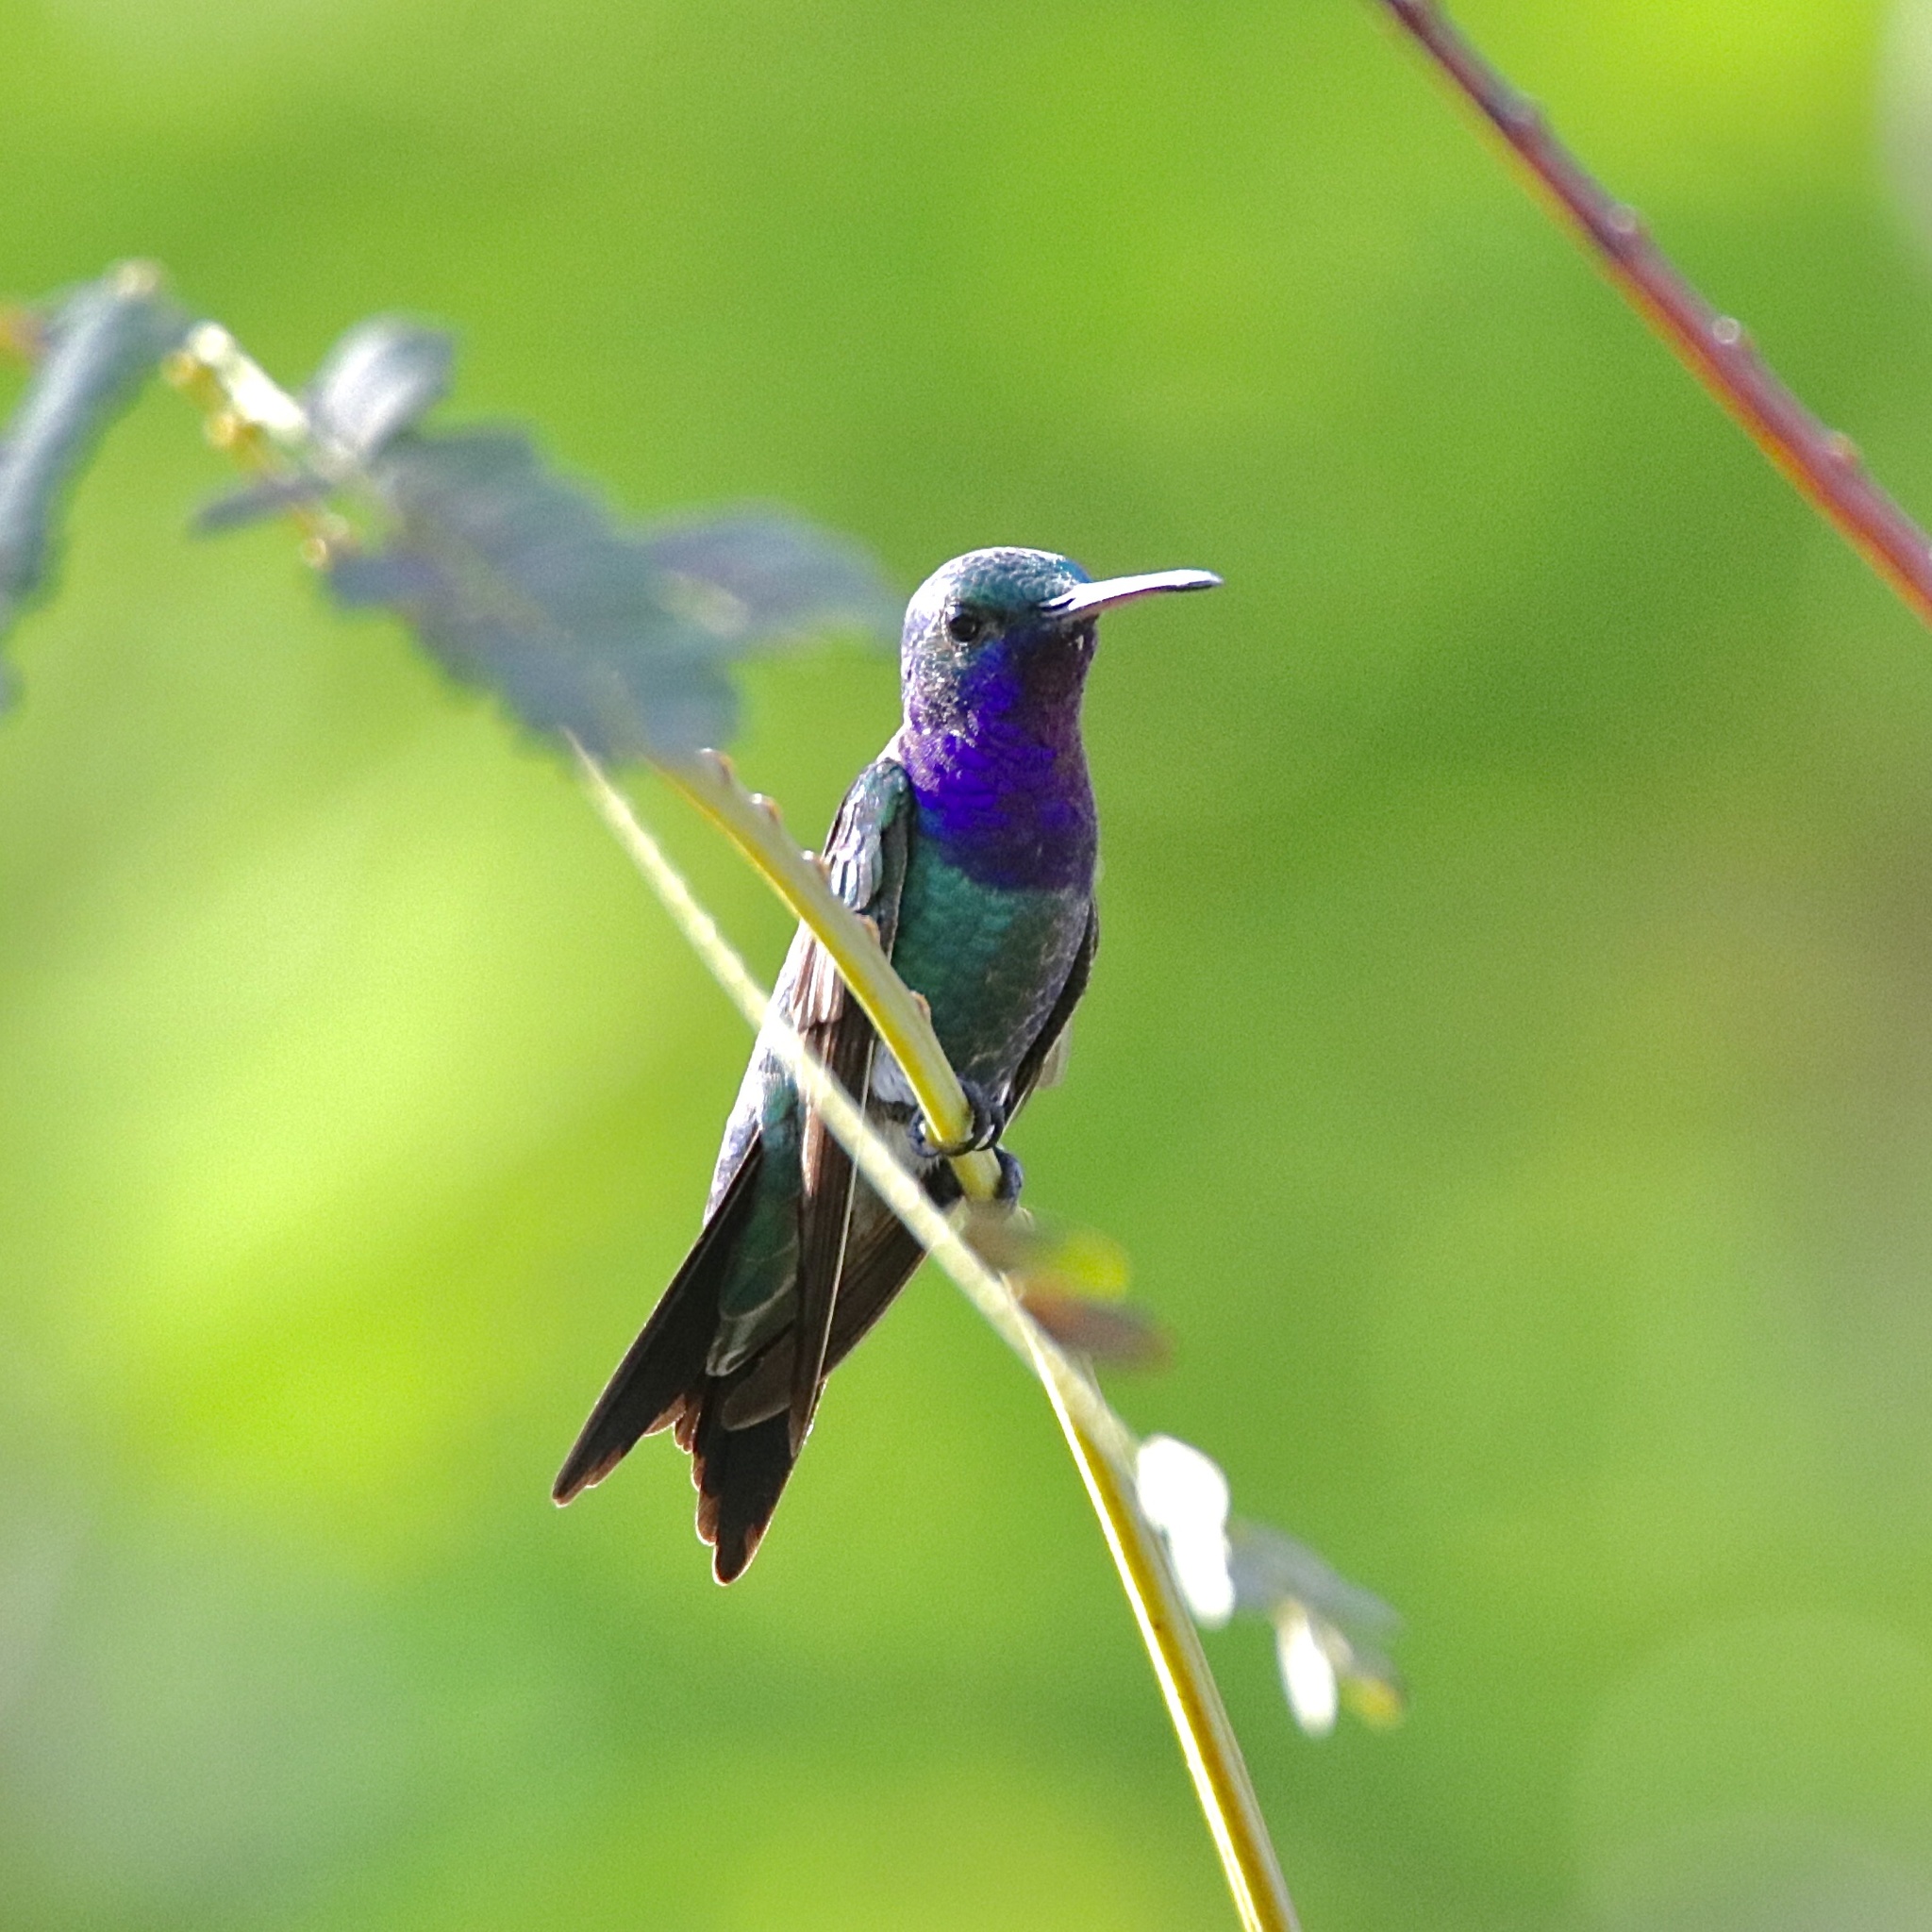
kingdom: Animalia
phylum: Chordata
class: Aves
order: Apodiformes
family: Trochilidae
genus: Chrysuronia
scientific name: Chrysuronia coeruleogularis
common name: Sapphire-throated hummingbird
